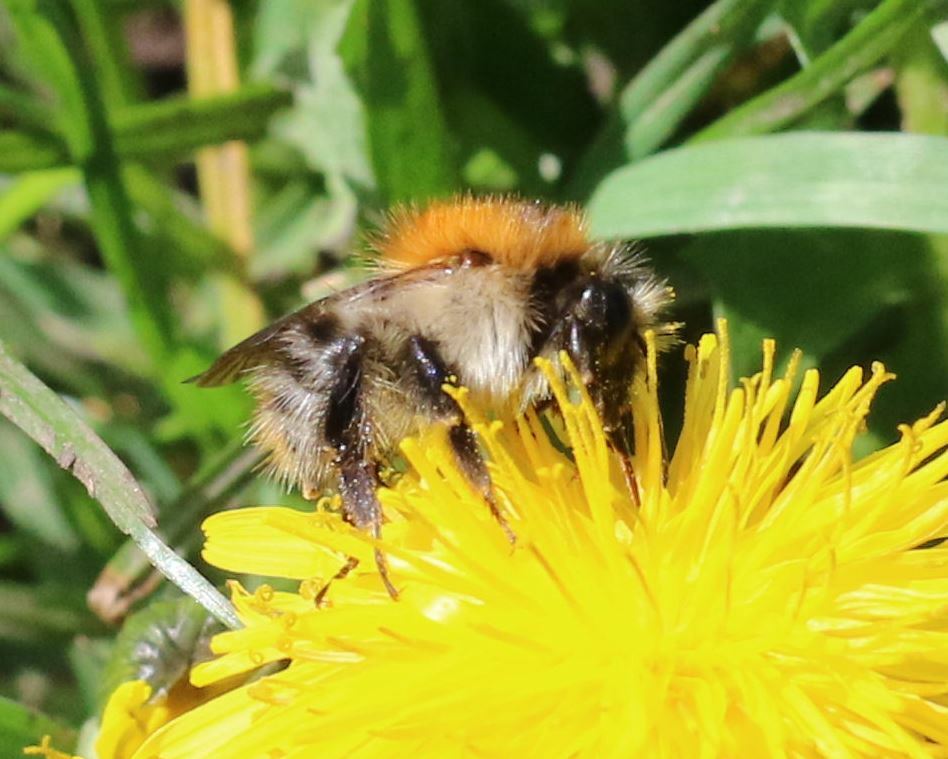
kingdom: Animalia
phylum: Arthropoda
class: Insecta
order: Hymenoptera
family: Apidae
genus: Bombus
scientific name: Bombus pascuorum
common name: Common carder bee
